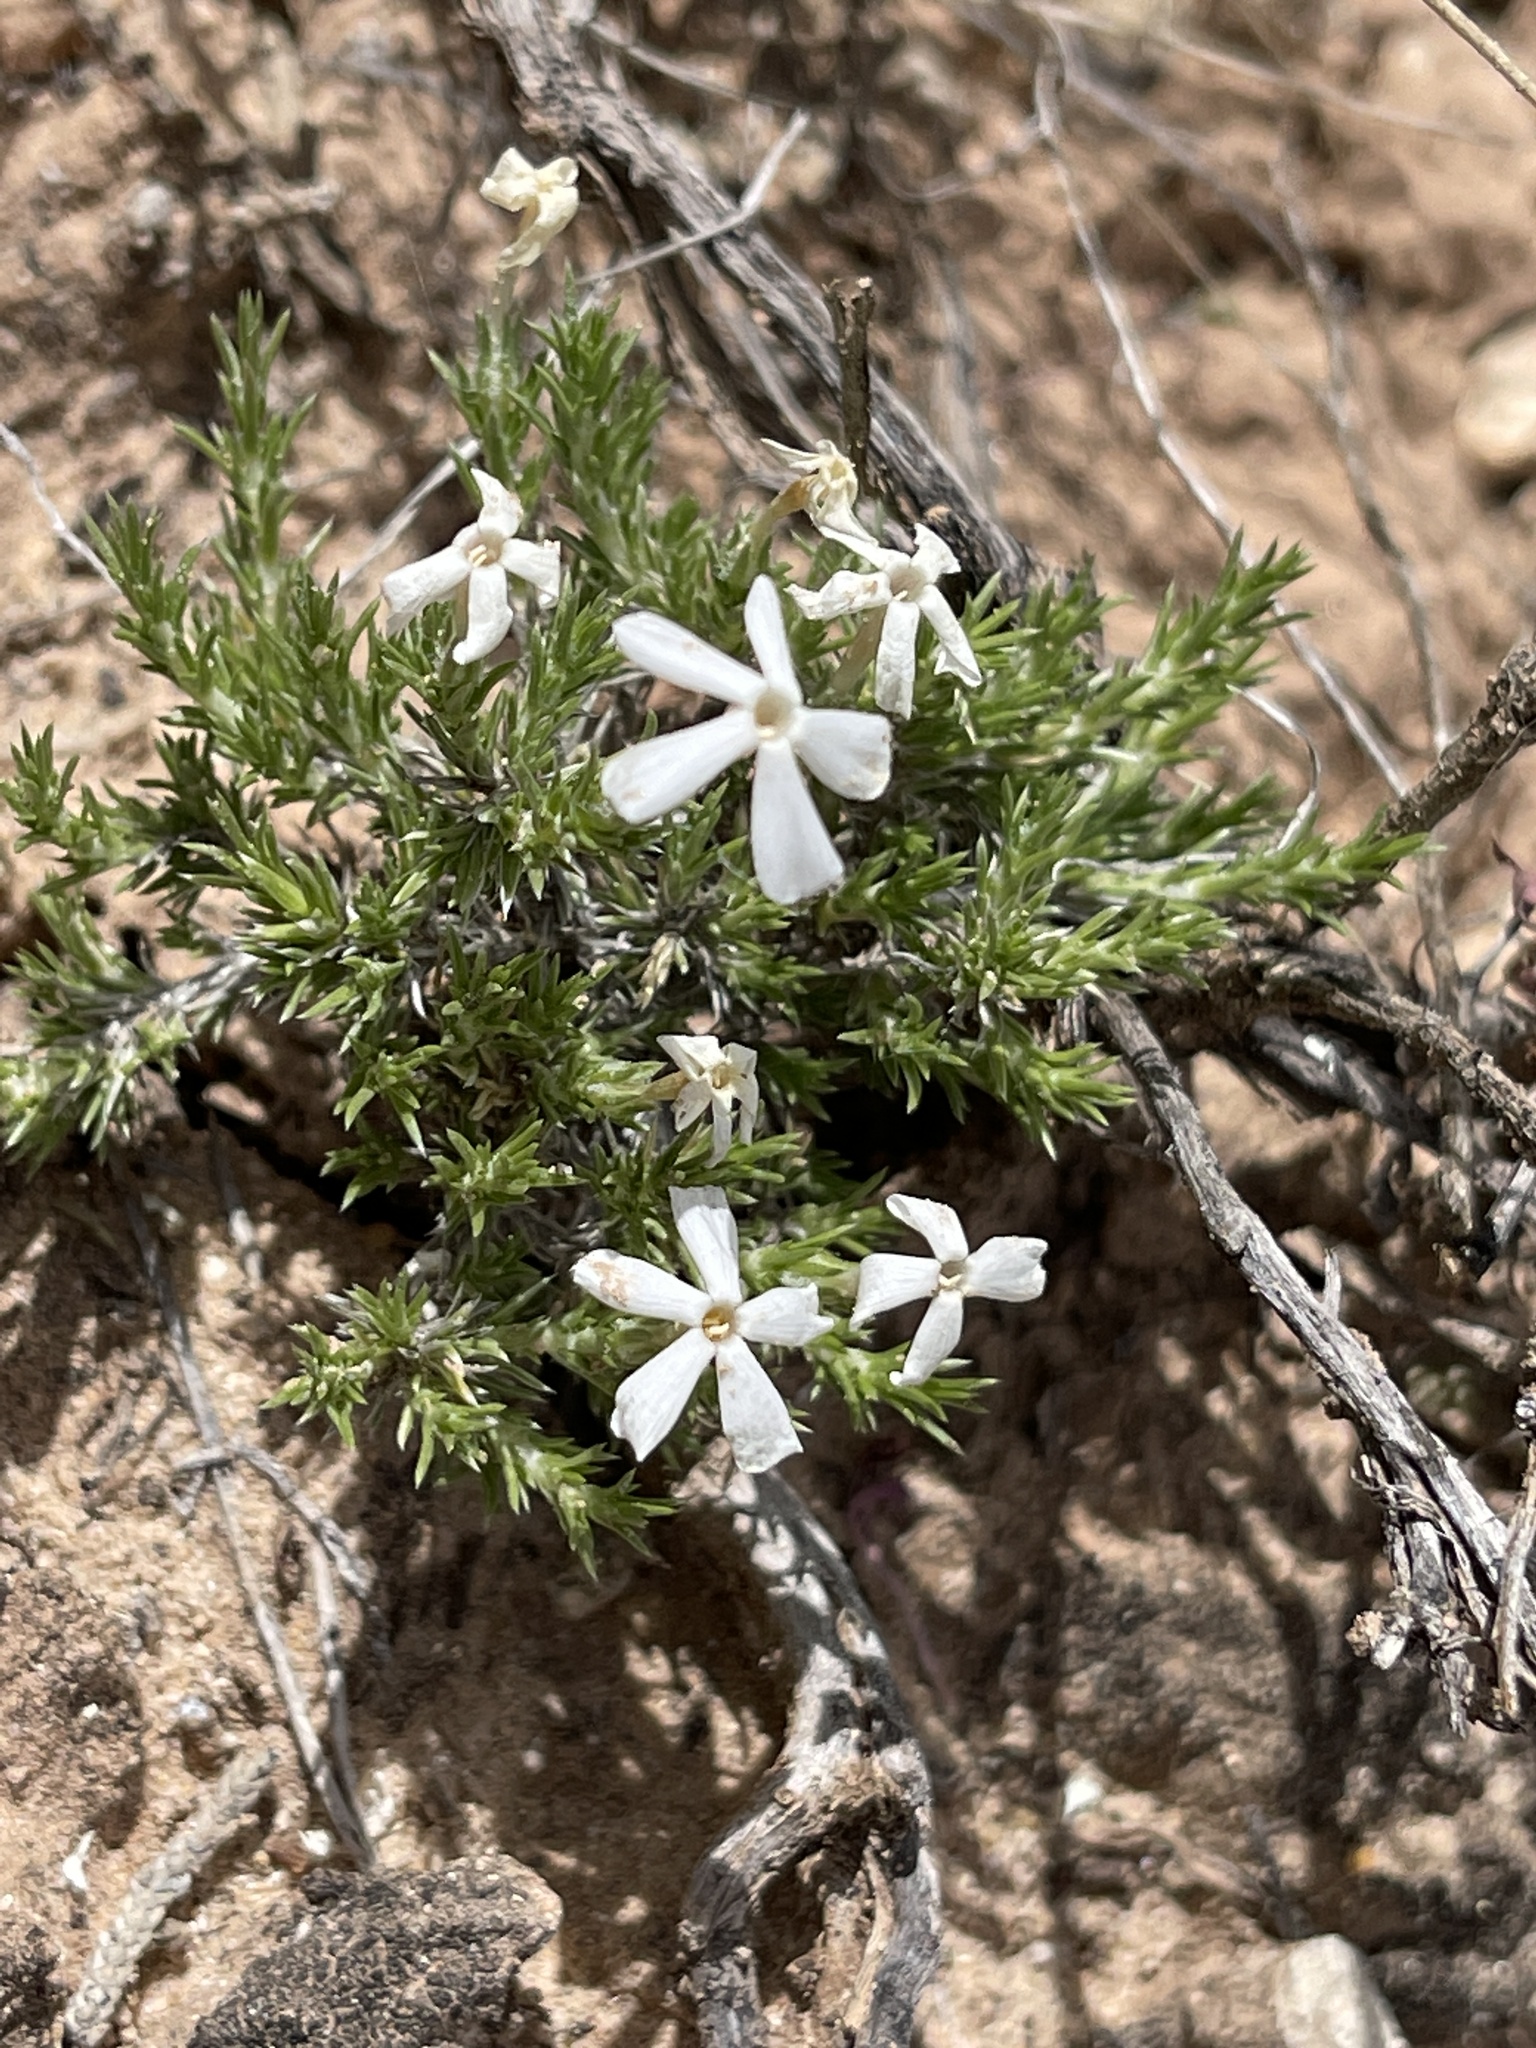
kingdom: Plantae
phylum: Tracheophyta
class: Magnoliopsida
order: Ericales
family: Polemoniaceae
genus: Phlox
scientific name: Phlox hoodii
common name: Moss phlox
